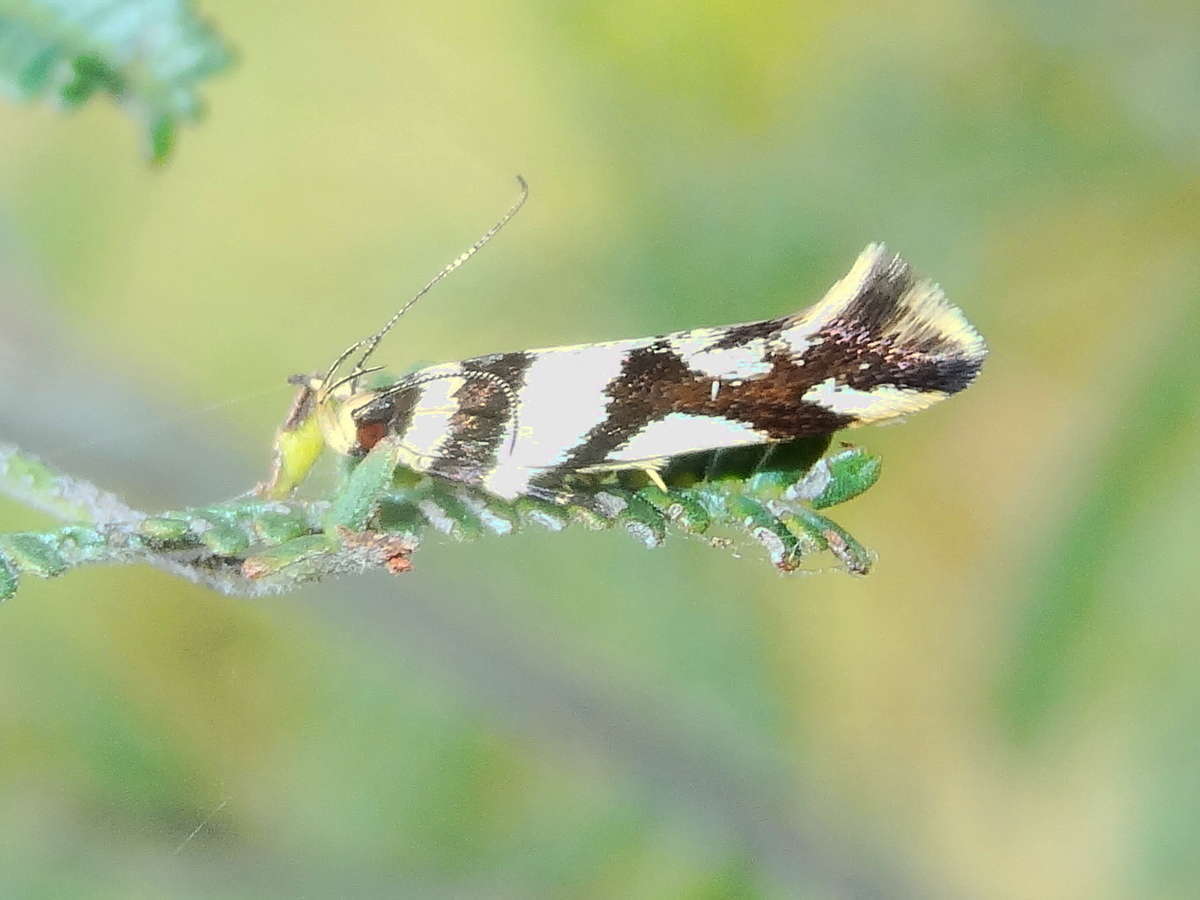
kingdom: Animalia
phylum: Arthropoda
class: Insecta
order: Lepidoptera
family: Cosmopterigidae
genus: Macrobathra
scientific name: Macrobathra desmotoma
